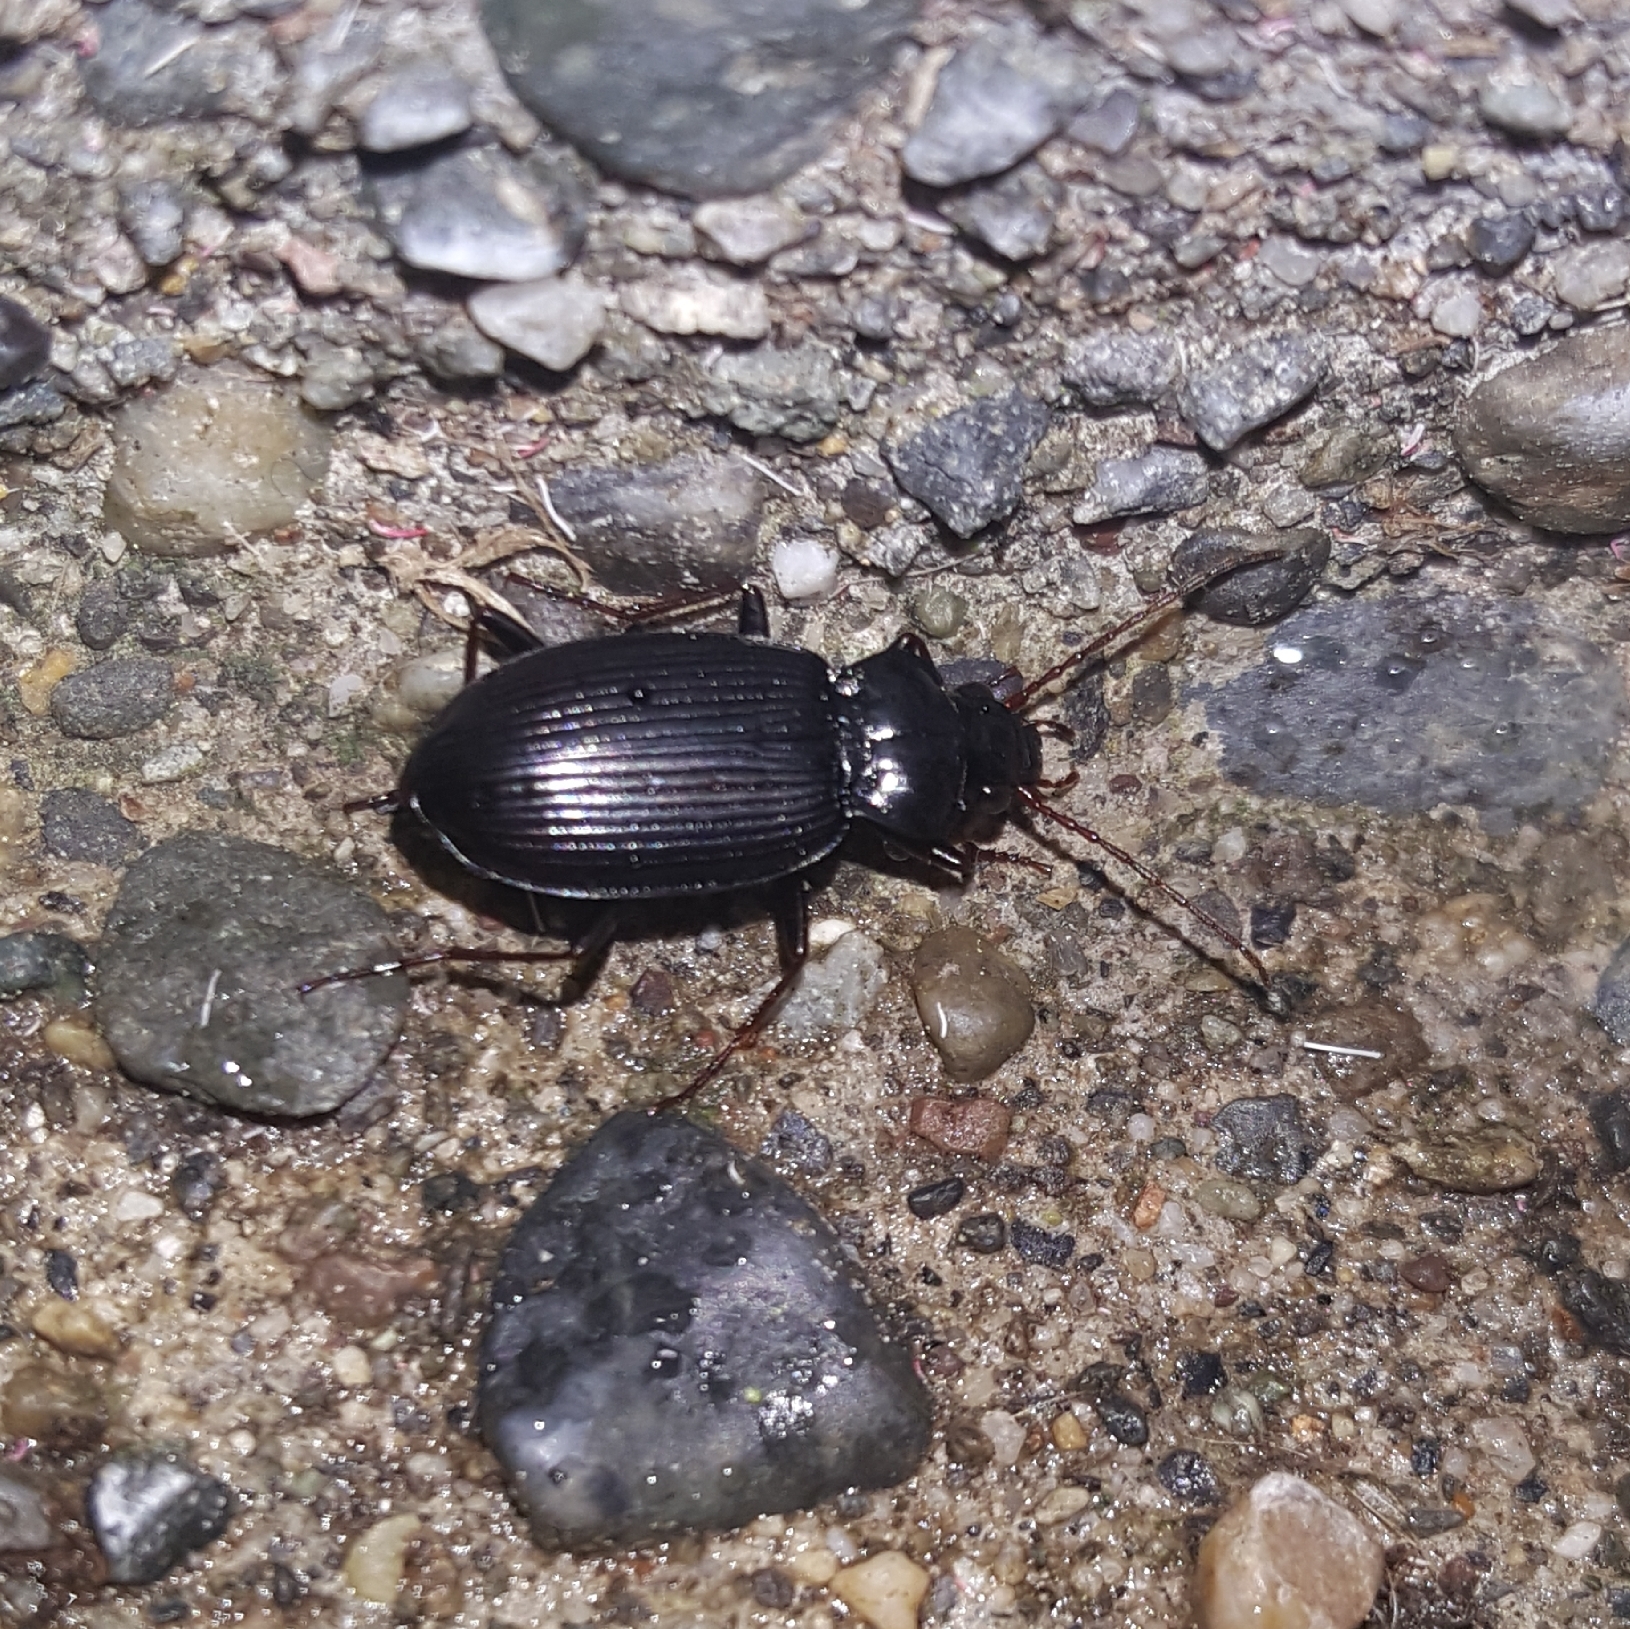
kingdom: Animalia
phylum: Arthropoda
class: Insecta
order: Coleoptera
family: Carabidae
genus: Nebria
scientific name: Nebria brevicollis
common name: Short-necked gazelle beetle
